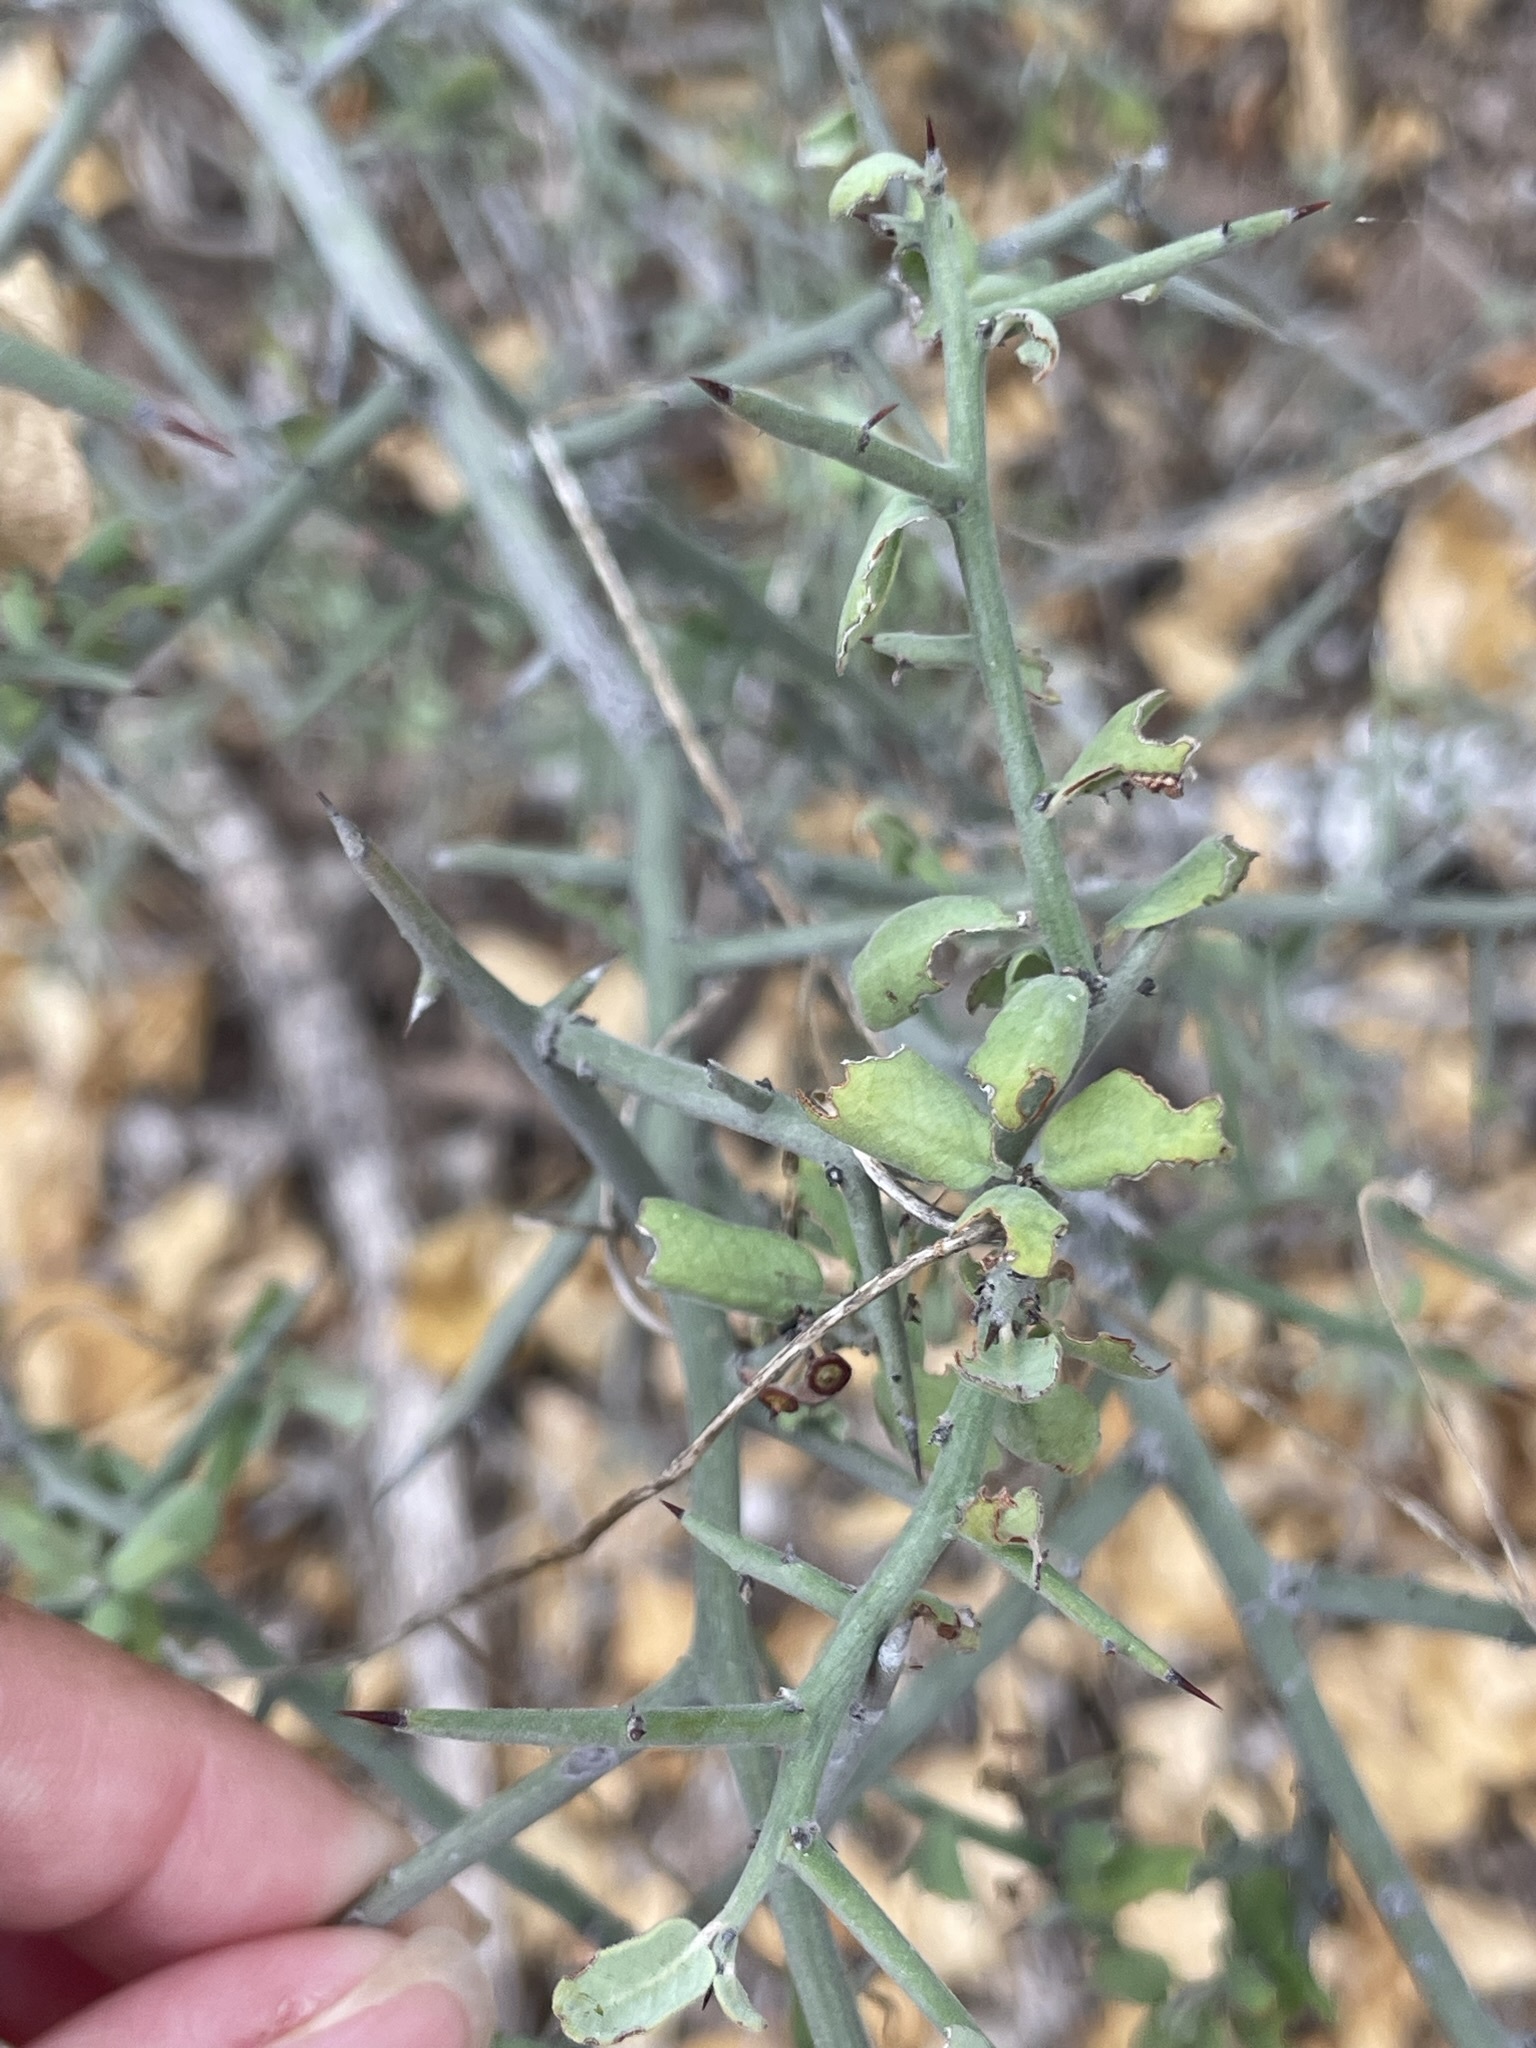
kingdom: Plantae
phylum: Tracheophyta
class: Magnoliopsida
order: Rosales
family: Rhamnaceae
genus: Sarcomphalus
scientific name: Sarcomphalus obtusifolius
